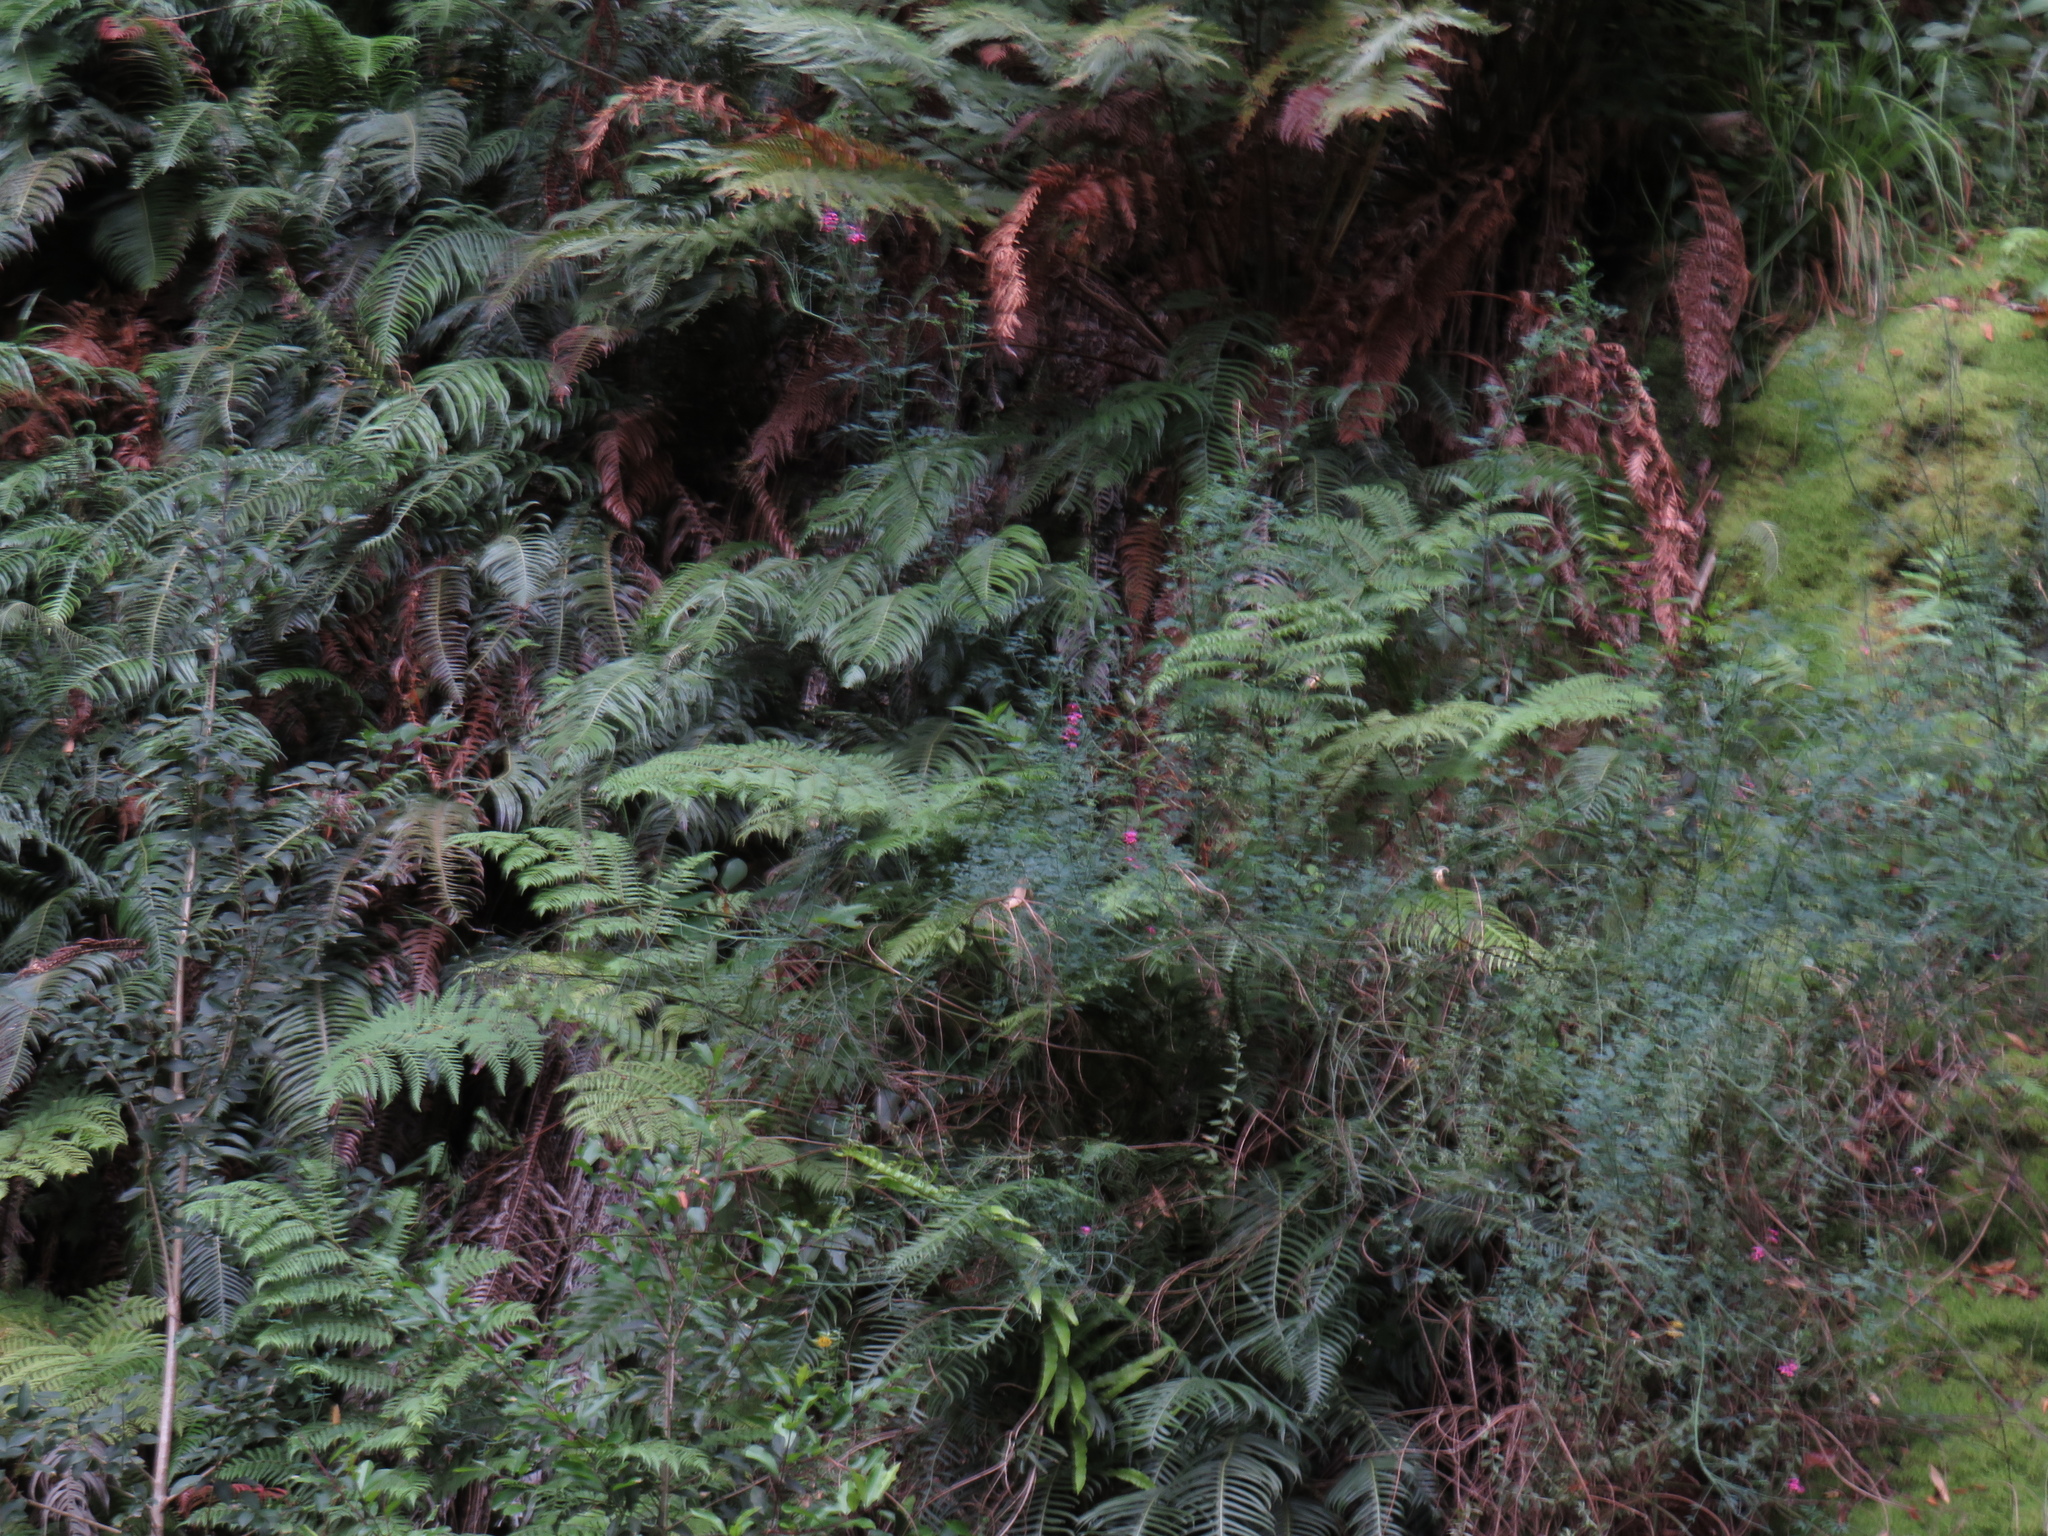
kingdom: Plantae
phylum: Tracheophyta
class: Magnoliopsida
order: Fabales
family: Fabaceae
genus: Indigofera
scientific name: Indigofera filifolia
